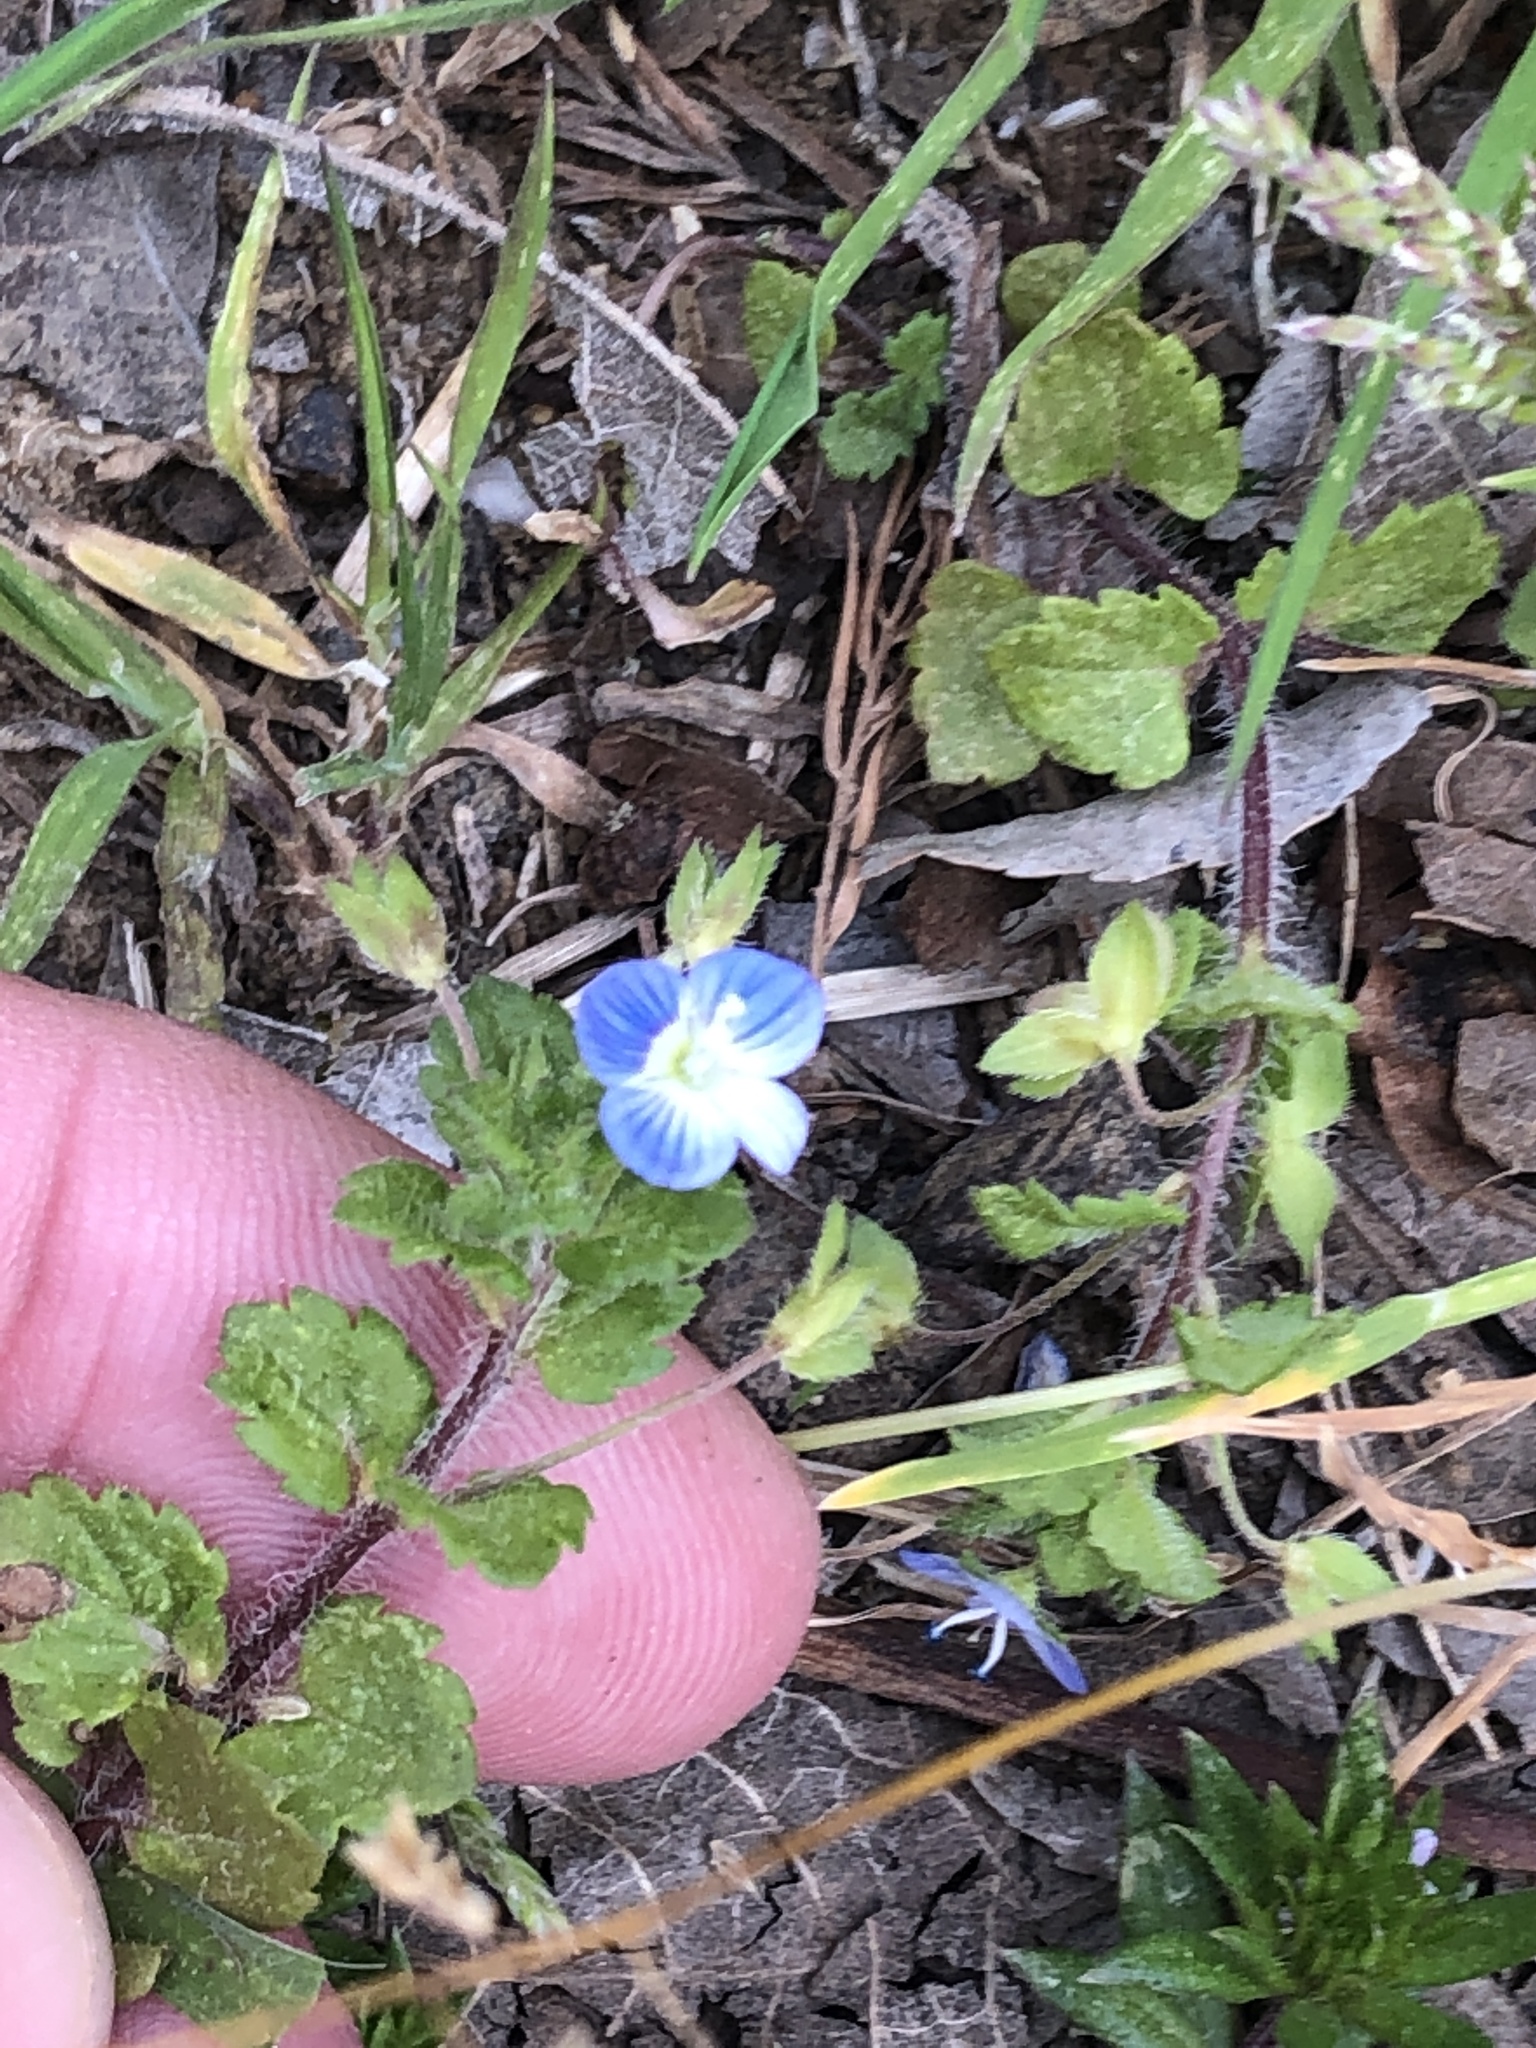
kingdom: Plantae
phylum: Tracheophyta
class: Magnoliopsida
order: Lamiales
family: Plantaginaceae
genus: Veronica
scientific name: Veronica persica
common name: Common field-speedwell
